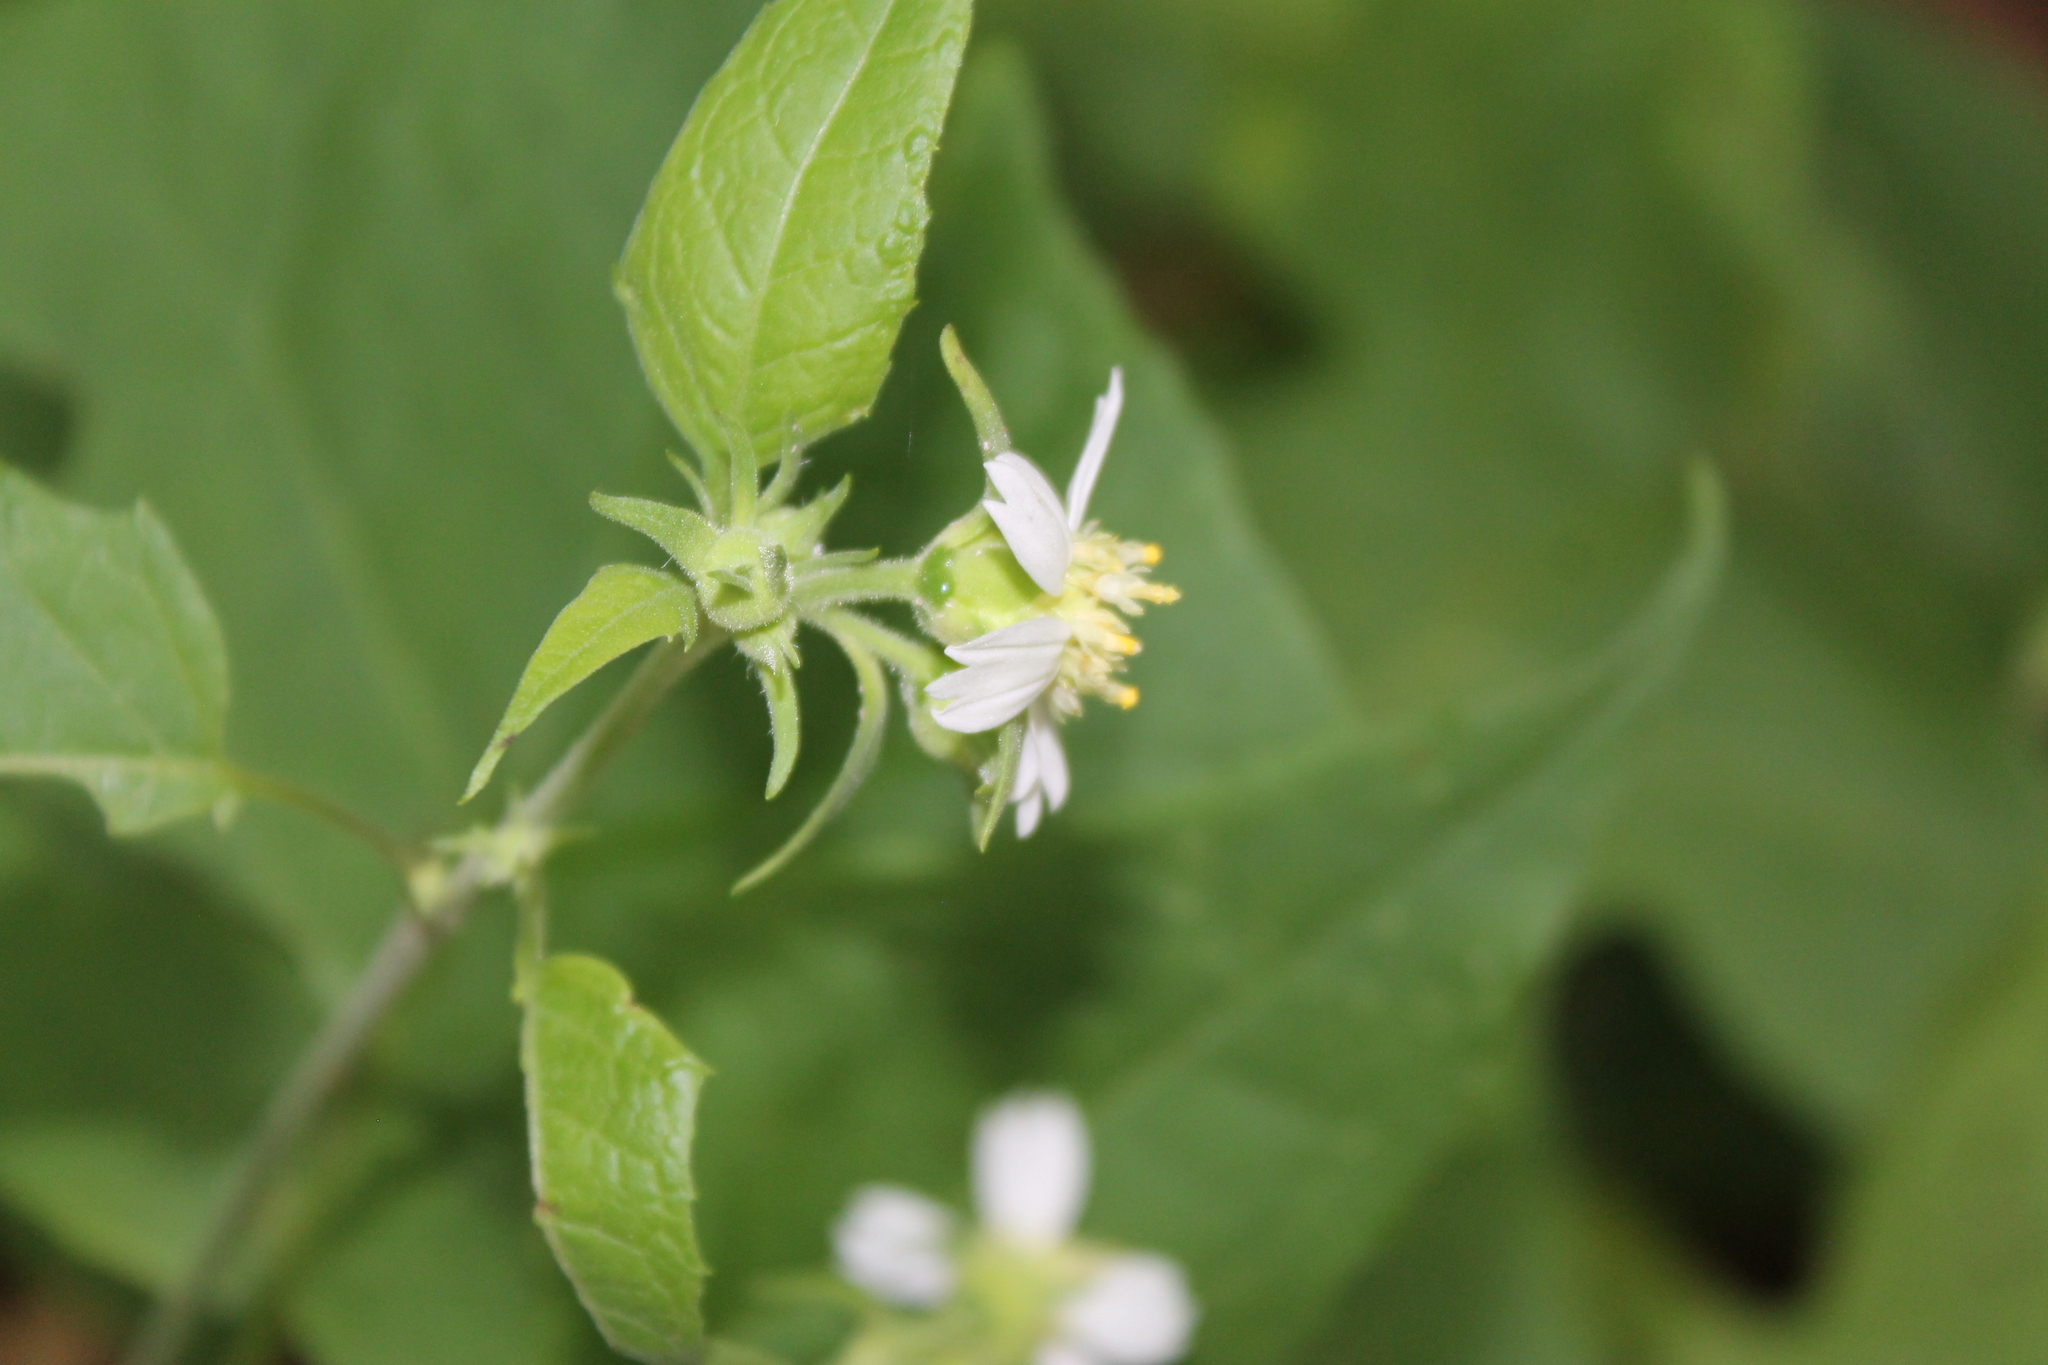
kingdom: Plantae
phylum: Tracheophyta
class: Magnoliopsida
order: Asterales
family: Asteraceae
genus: Polymnia
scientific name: Polymnia canadensis
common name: Pale-flowered leafcup
